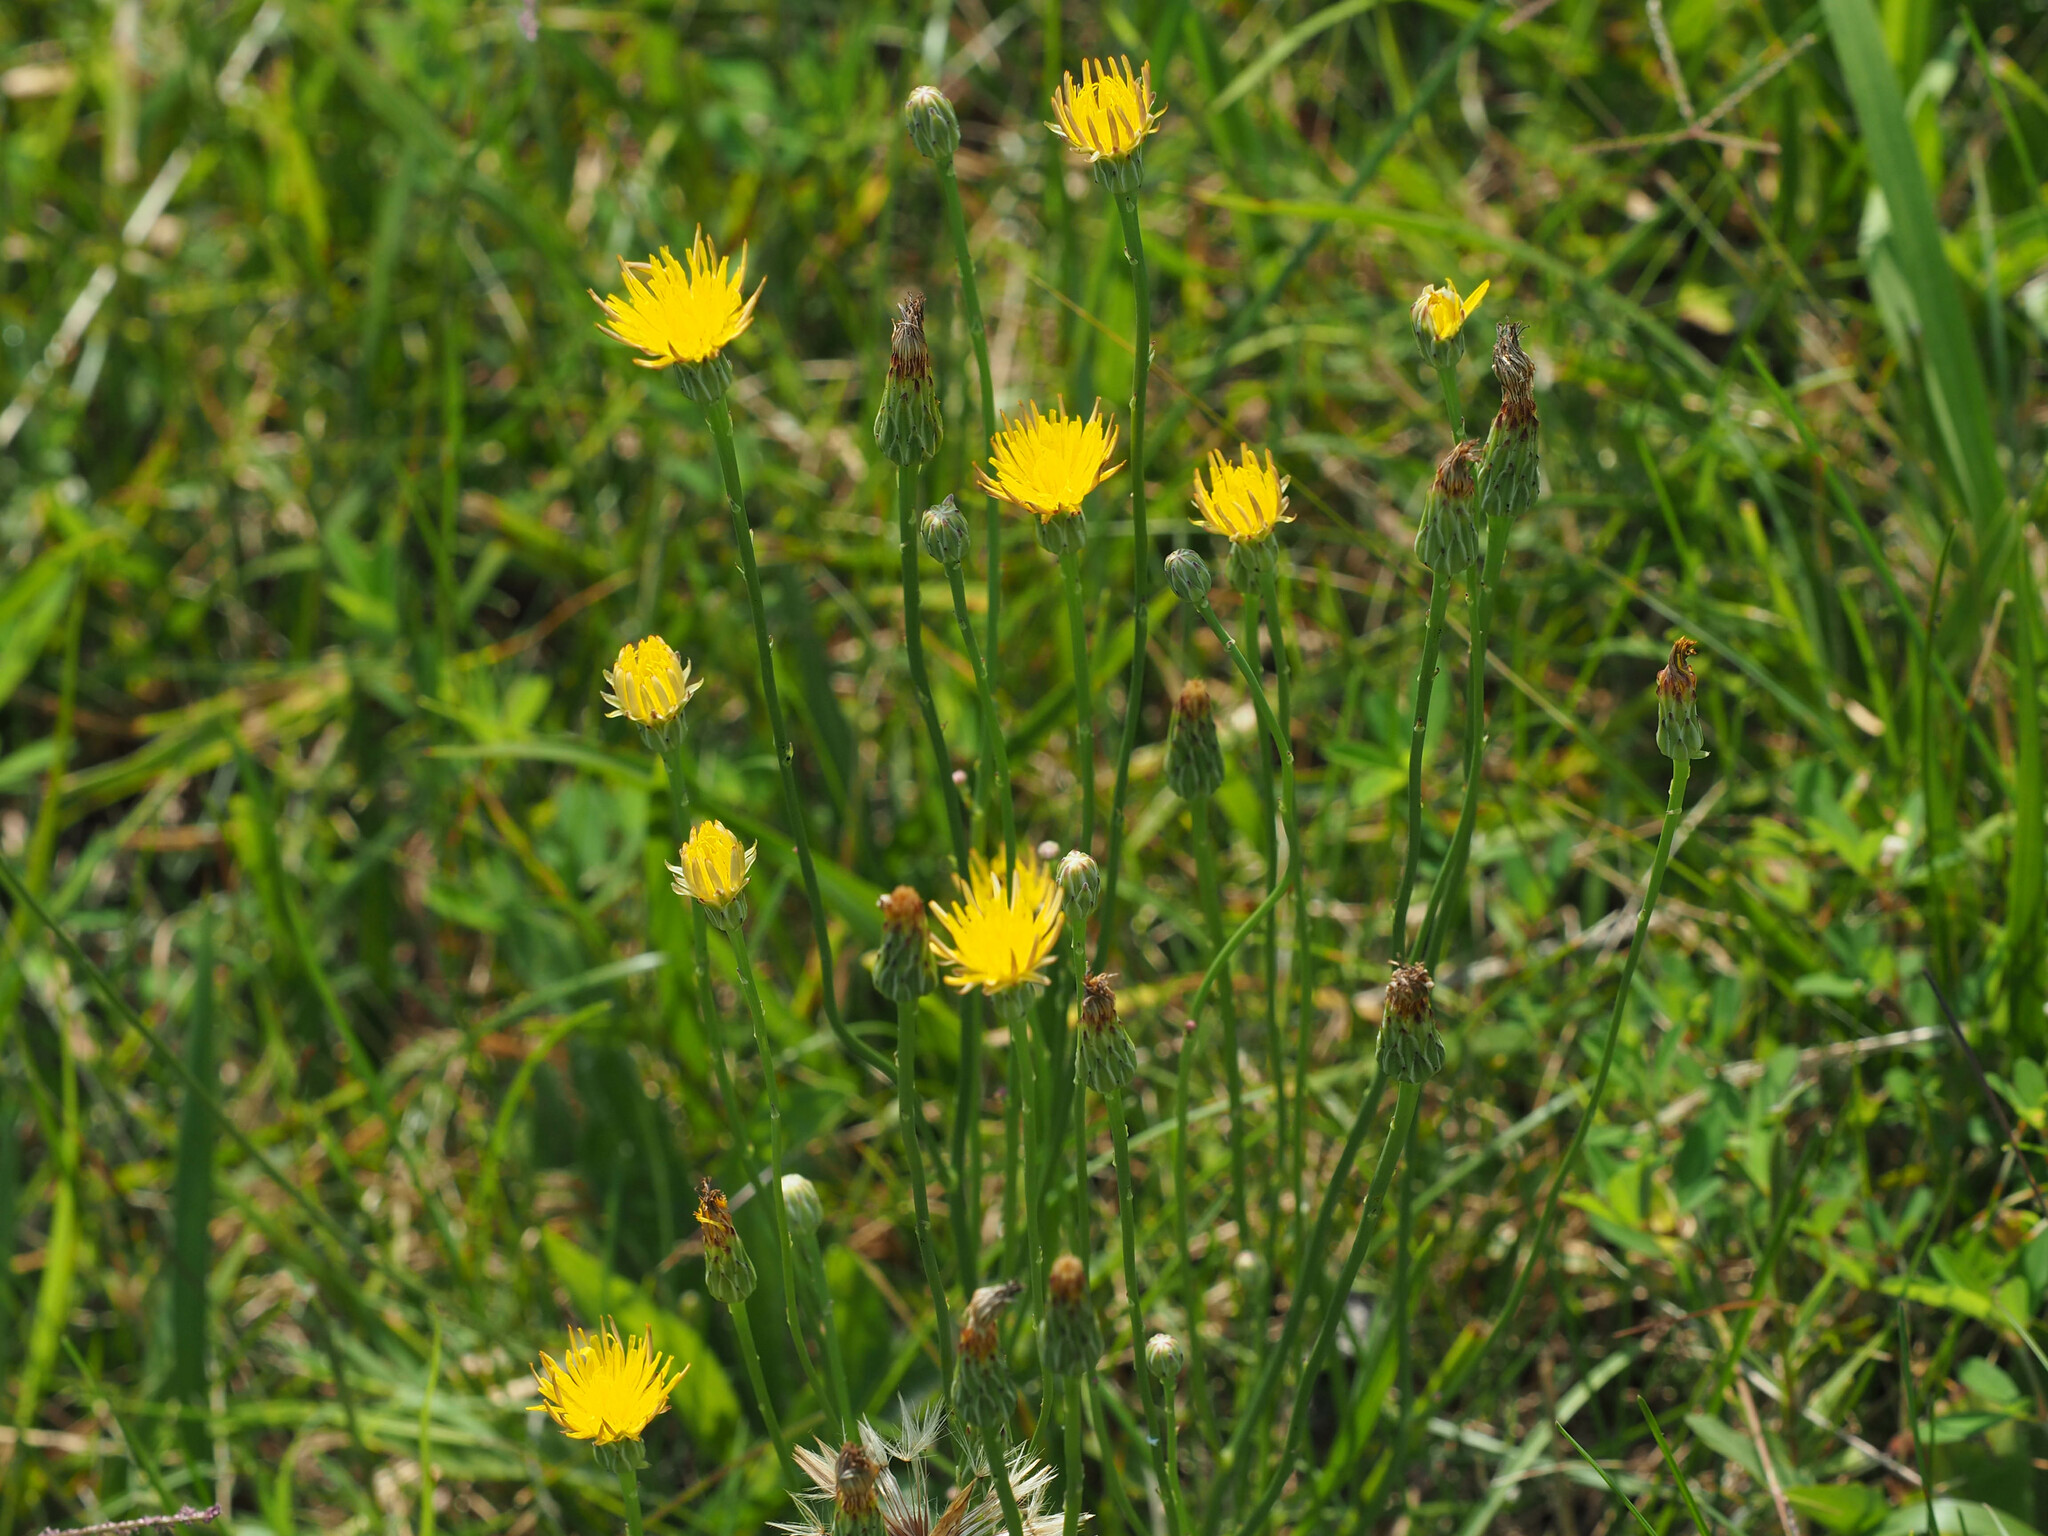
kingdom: Plantae
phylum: Tracheophyta
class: Magnoliopsida
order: Asterales
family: Asteraceae
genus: Hypochaeris
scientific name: Hypochaeris radicata
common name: Flatweed
